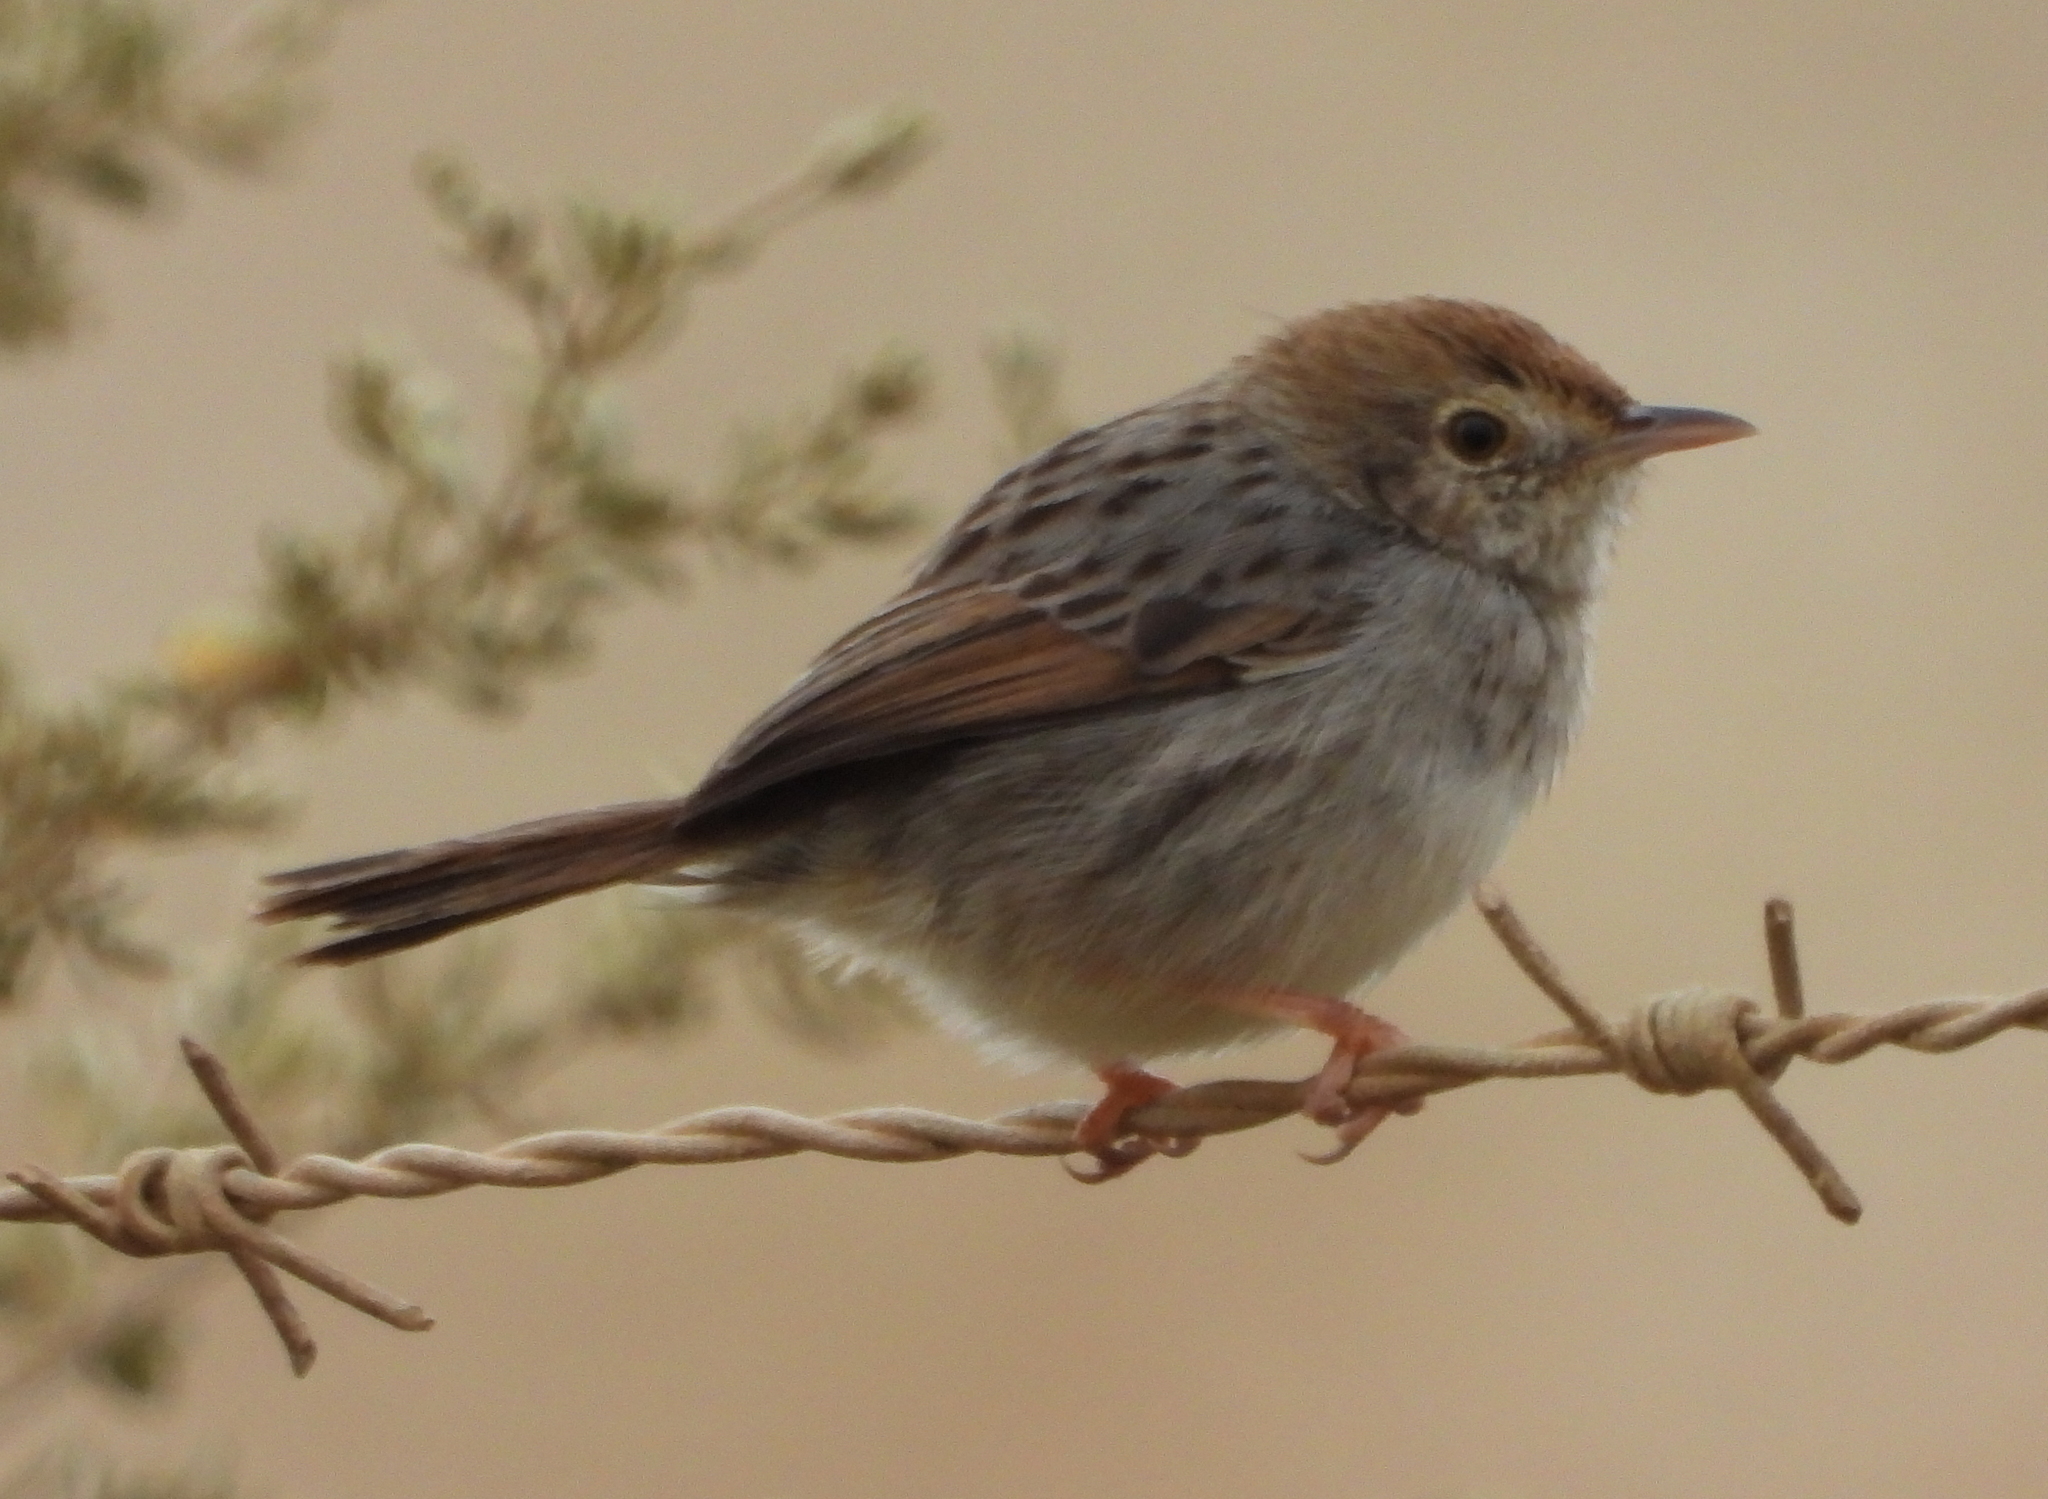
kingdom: Animalia
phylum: Chordata
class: Aves
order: Passeriformes
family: Cisticolidae
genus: Cisticola
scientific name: Cisticola subruficapilla
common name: Grey-backed cisticola
